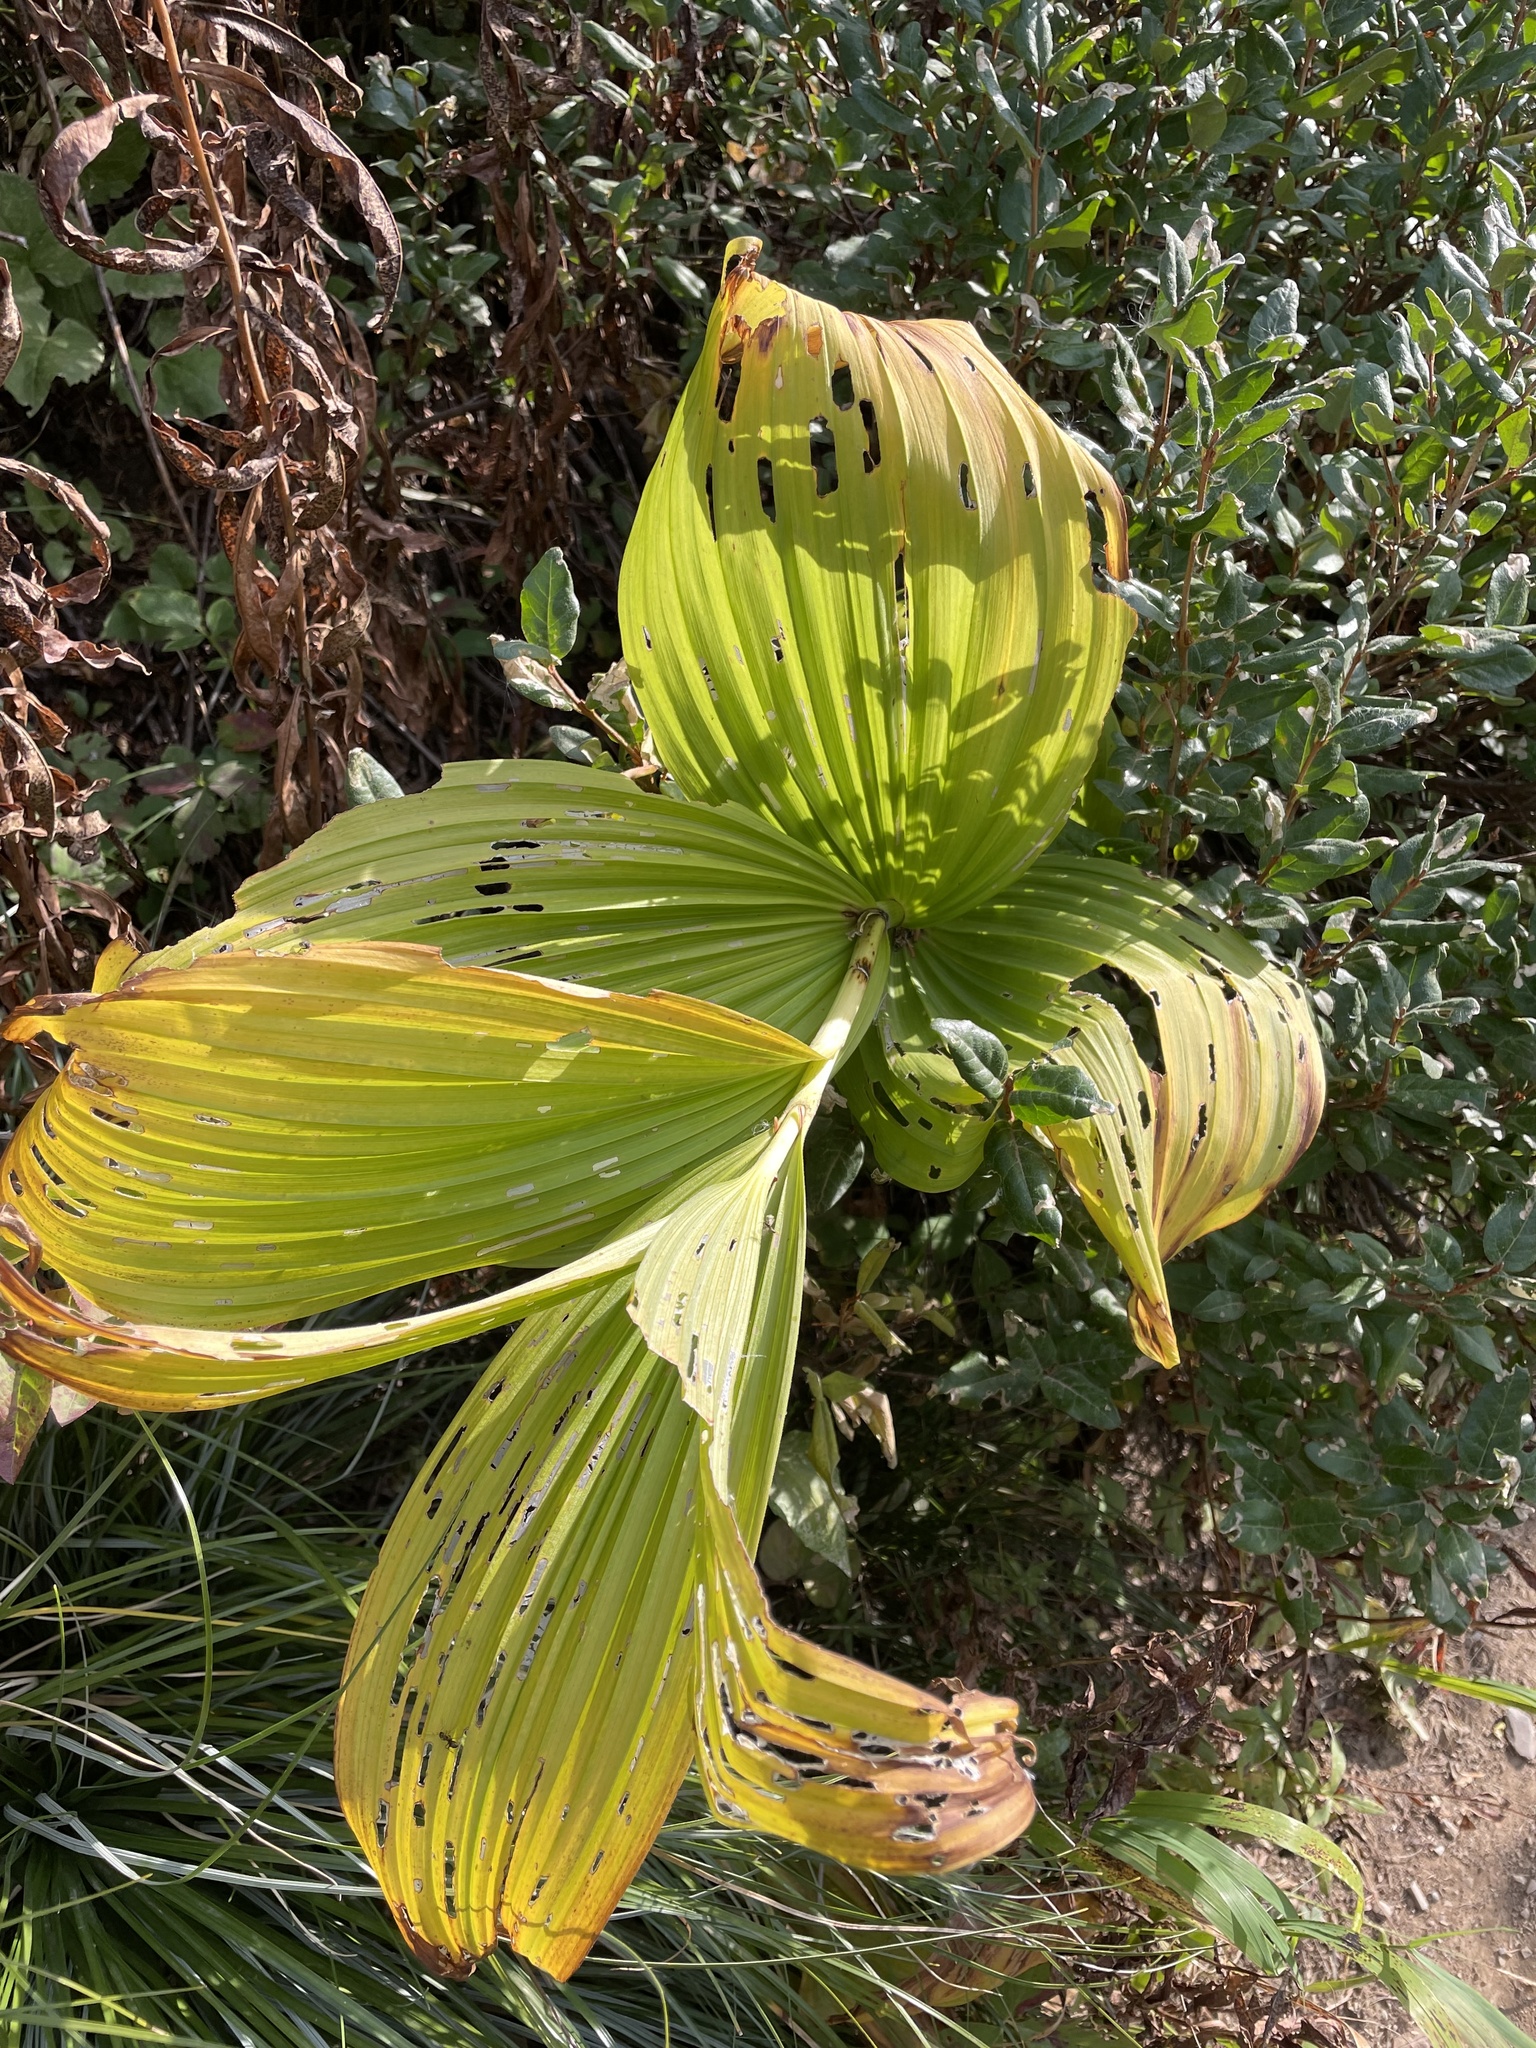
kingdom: Plantae
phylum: Tracheophyta
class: Liliopsida
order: Liliales
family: Melanthiaceae
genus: Veratrum
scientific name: Veratrum viride
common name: American false hellebore
